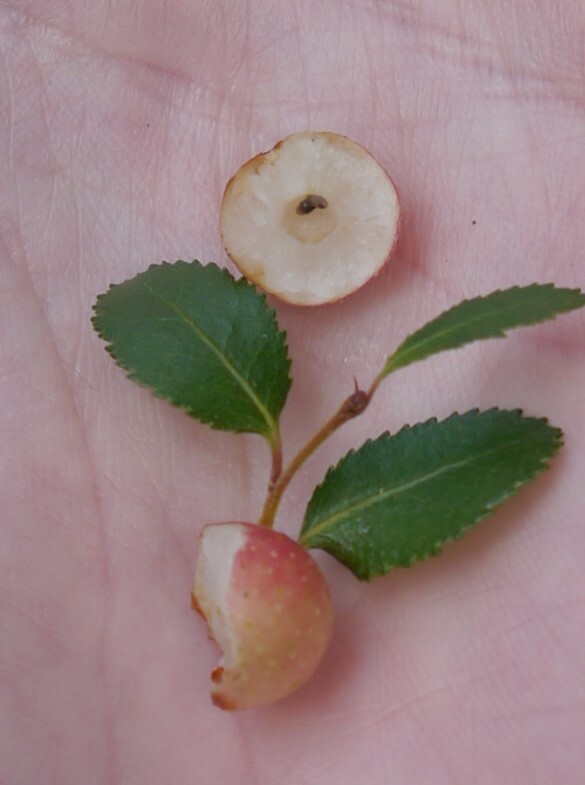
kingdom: Animalia
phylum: Arthropoda
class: Insecta
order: Hymenoptera
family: Pteromalidae
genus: Aditrochus
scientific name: Aditrochus coihuensis
